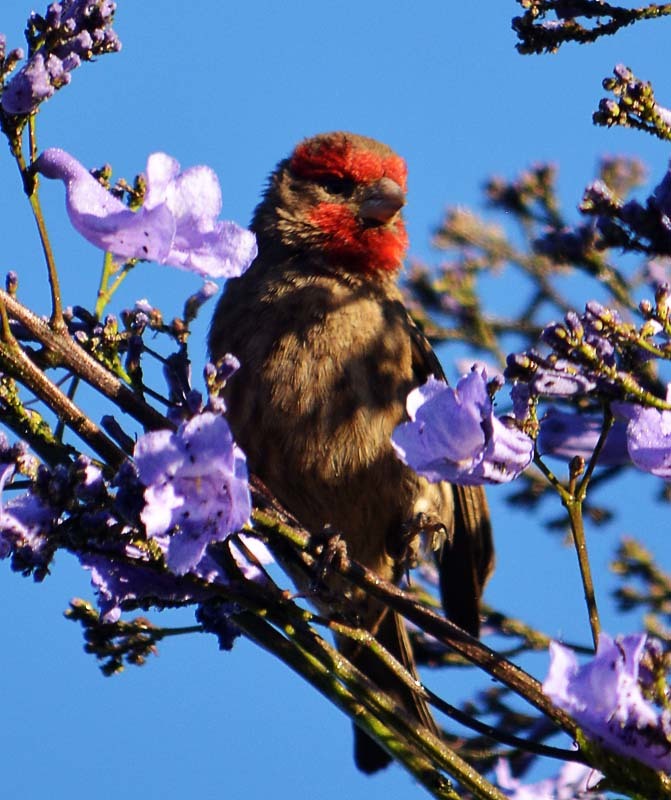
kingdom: Animalia
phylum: Chordata
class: Aves
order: Passeriformes
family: Fringillidae
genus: Haemorhous
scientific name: Haemorhous mexicanus
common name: House finch
